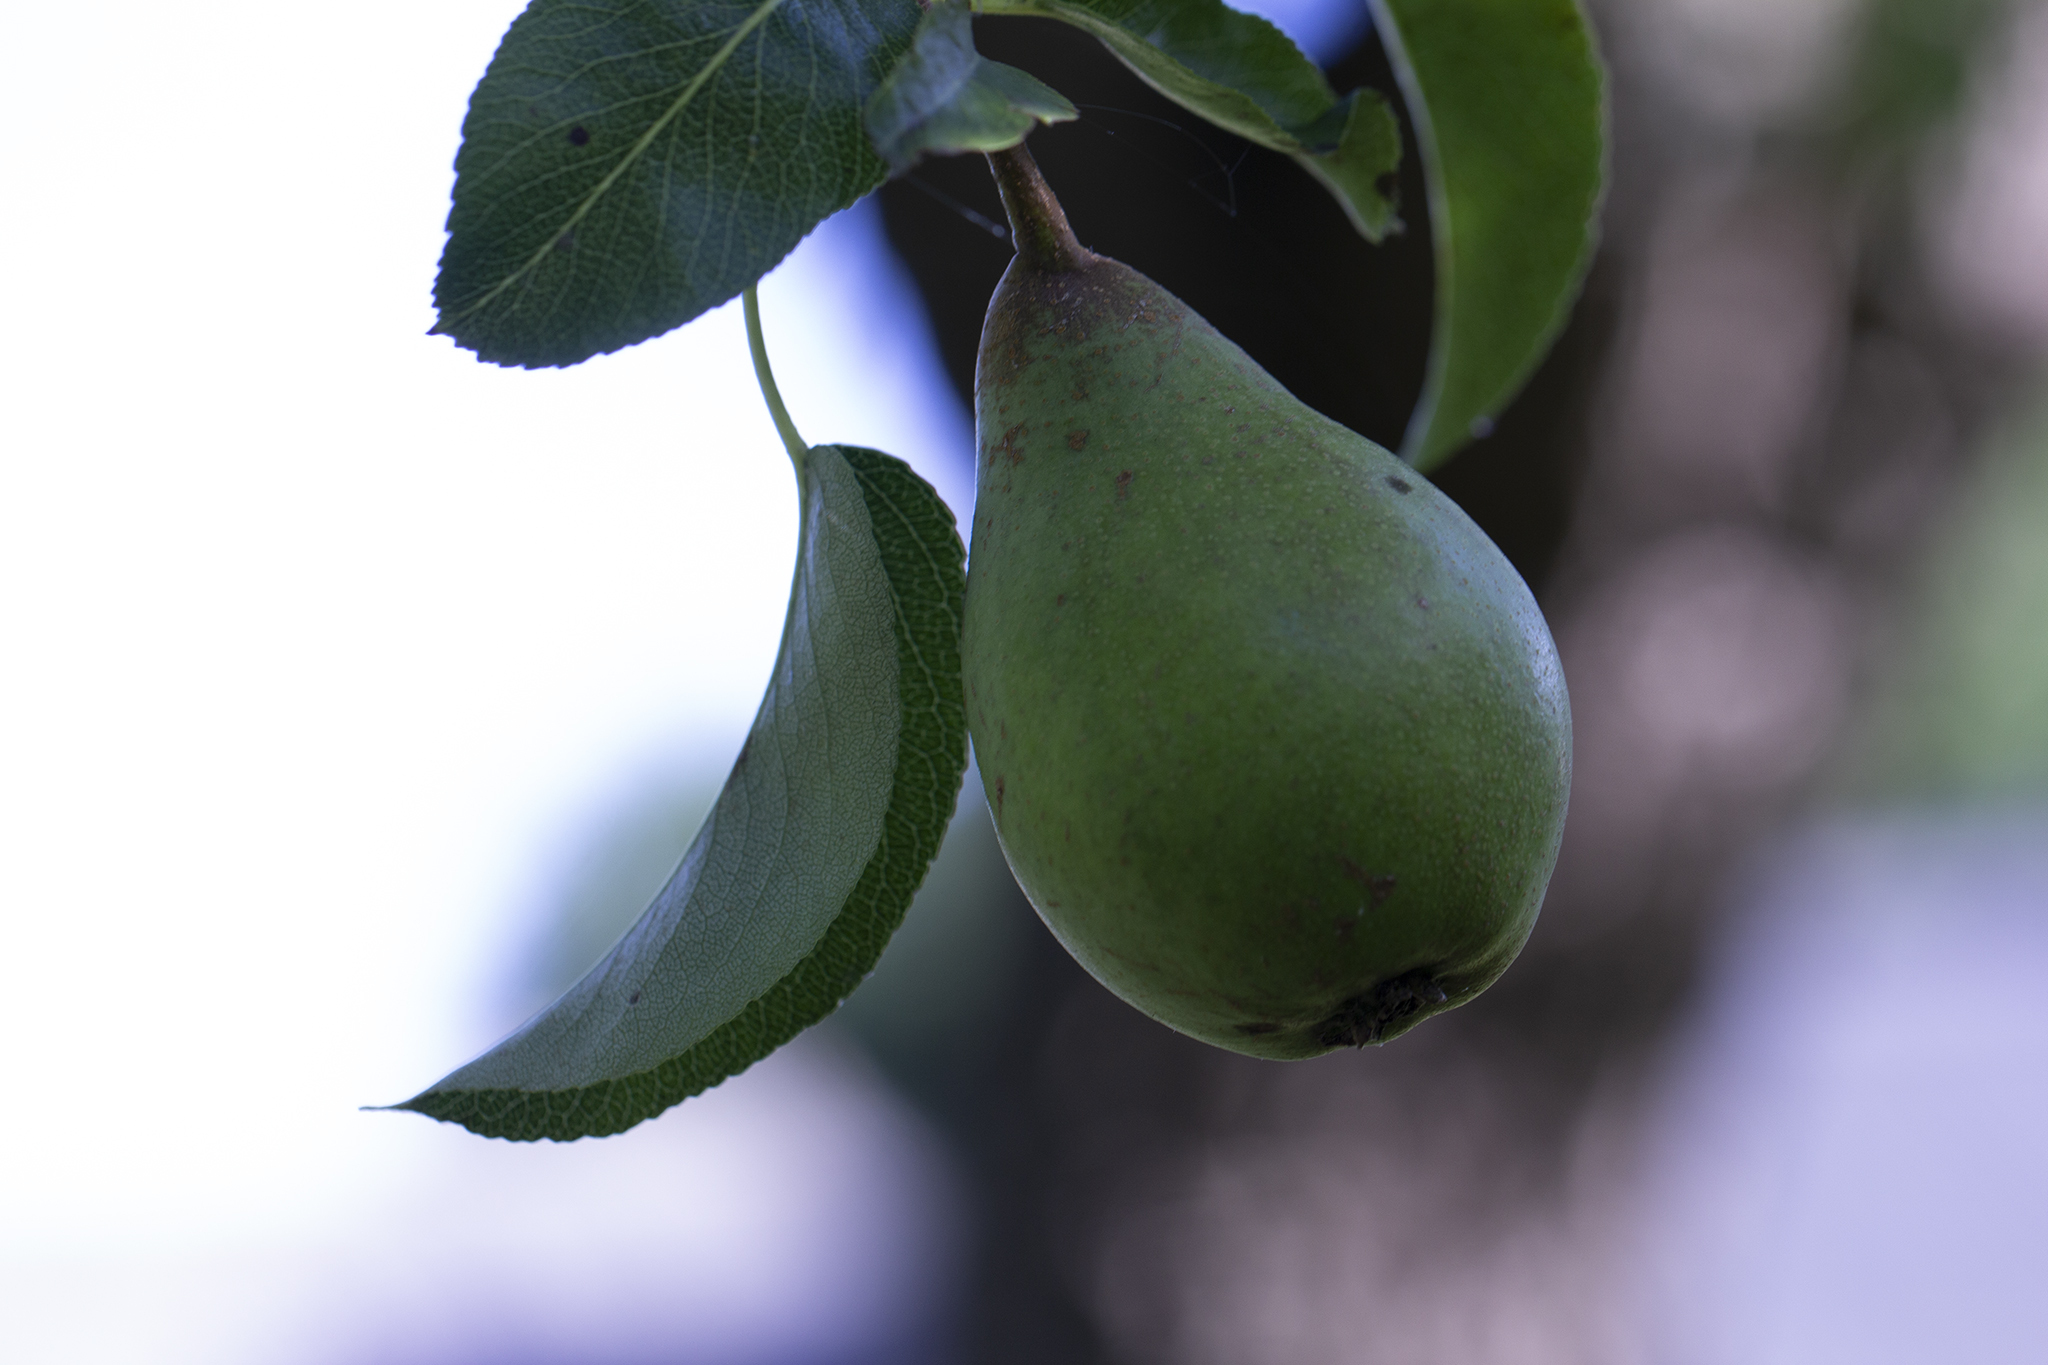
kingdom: Plantae
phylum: Tracheophyta
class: Magnoliopsida
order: Rosales
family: Rosaceae
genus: Pyrus
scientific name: Pyrus communis
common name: Pear
